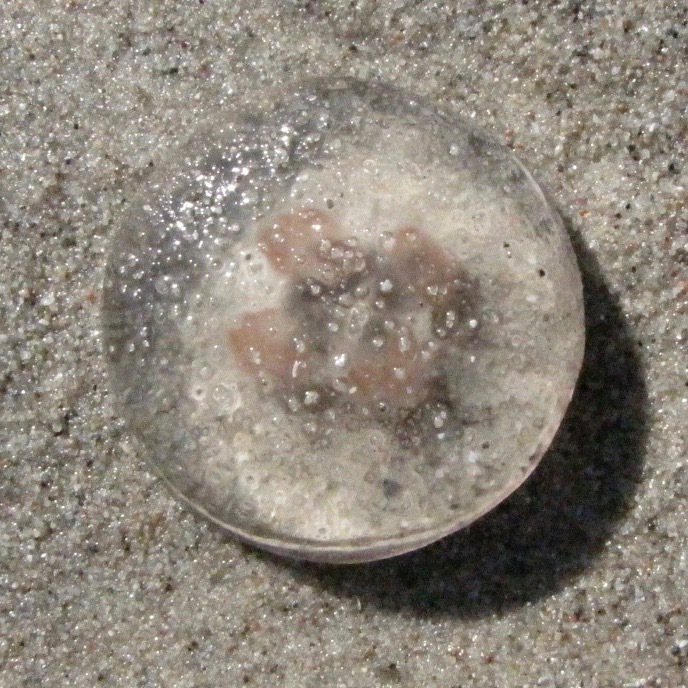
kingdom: Animalia
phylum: Cnidaria
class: Scyphozoa
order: Semaeostomeae
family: Ulmaridae
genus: Aurelia
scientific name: Aurelia aurita
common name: Moon jellyfish
